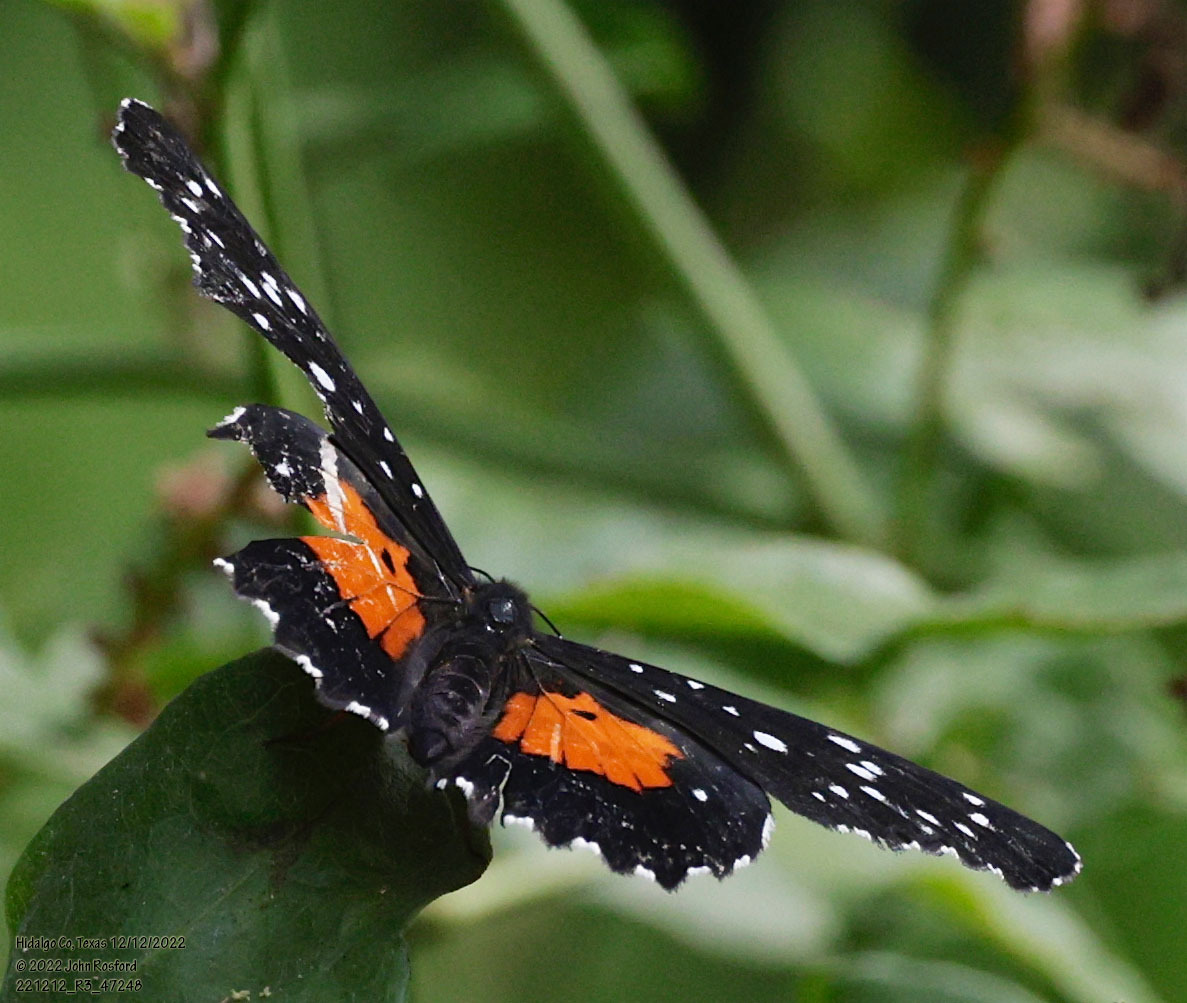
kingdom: Animalia
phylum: Arthropoda
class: Insecta
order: Lepidoptera
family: Nymphalidae
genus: Chlosyne
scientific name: Chlosyne janais
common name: Crimson patch
